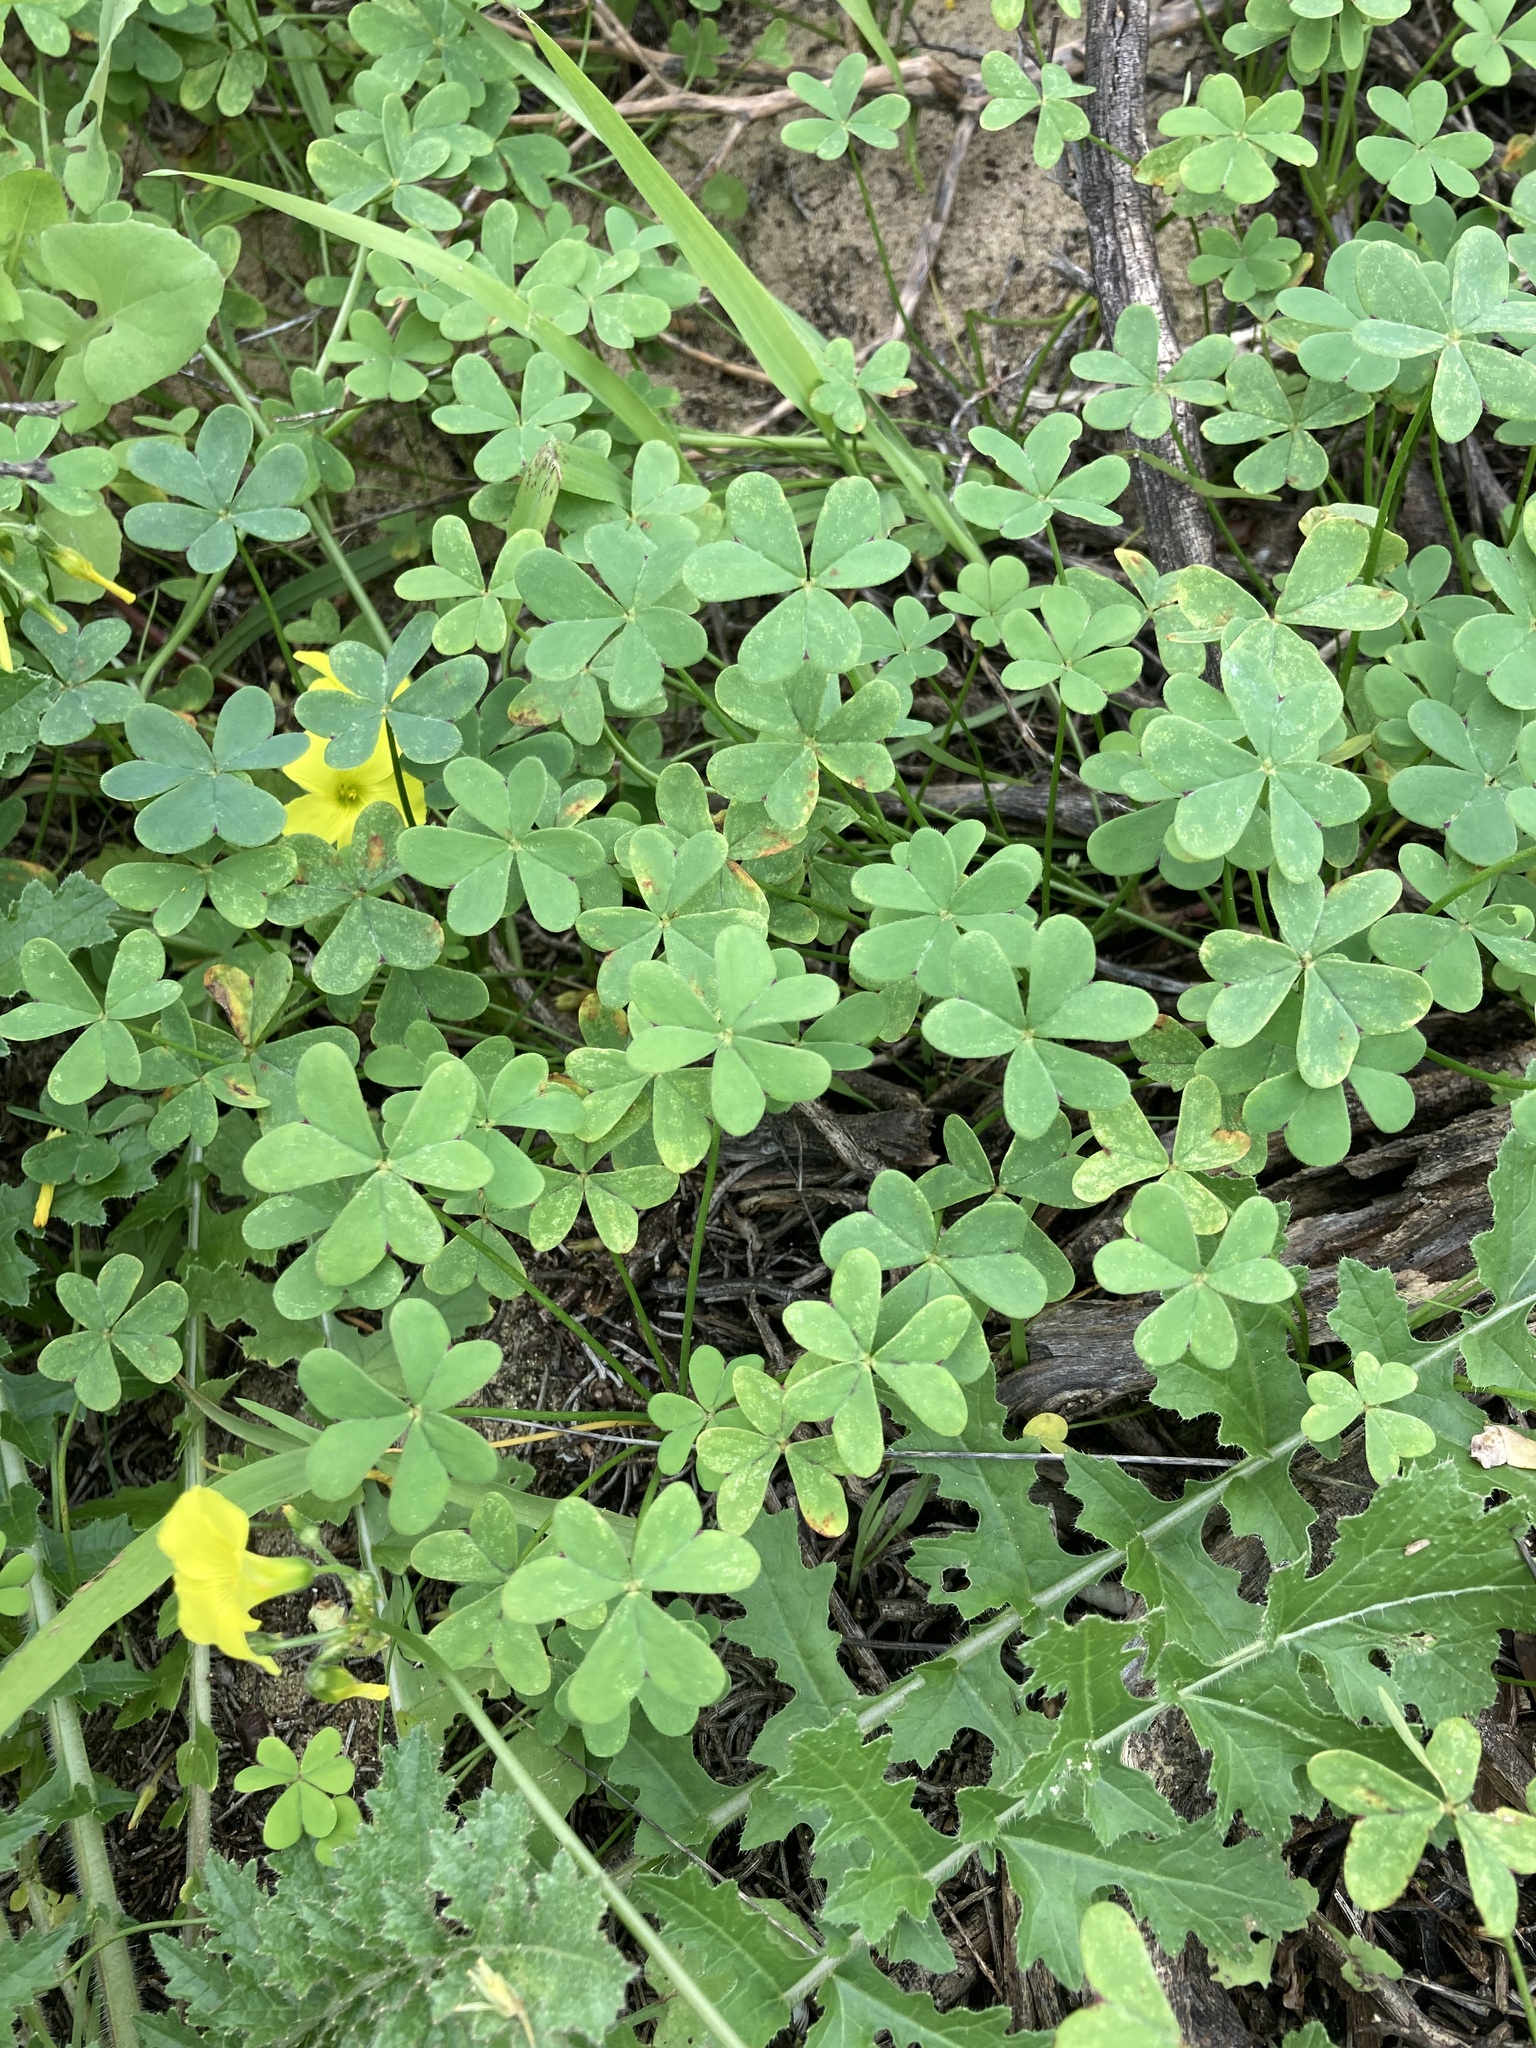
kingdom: Plantae
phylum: Tracheophyta
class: Magnoliopsida
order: Oxalidales
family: Oxalidaceae
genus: Oxalis
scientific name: Oxalis pes-caprae
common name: Bermuda-buttercup
